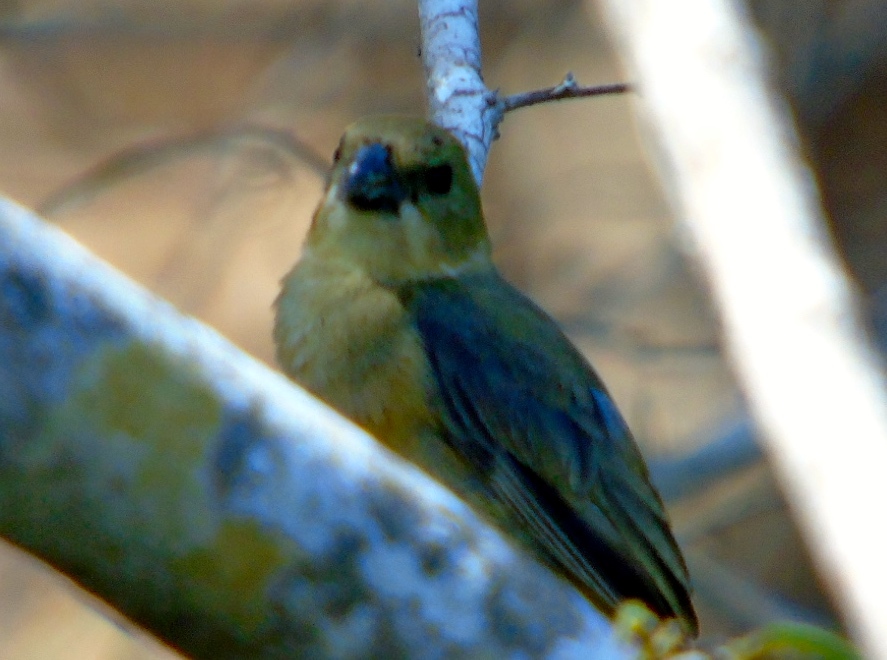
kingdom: Animalia
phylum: Chordata
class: Aves
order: Passeriformes
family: Thraupidae
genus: Sporophila
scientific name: Sporophila torqueola
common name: White-collared seedeater
